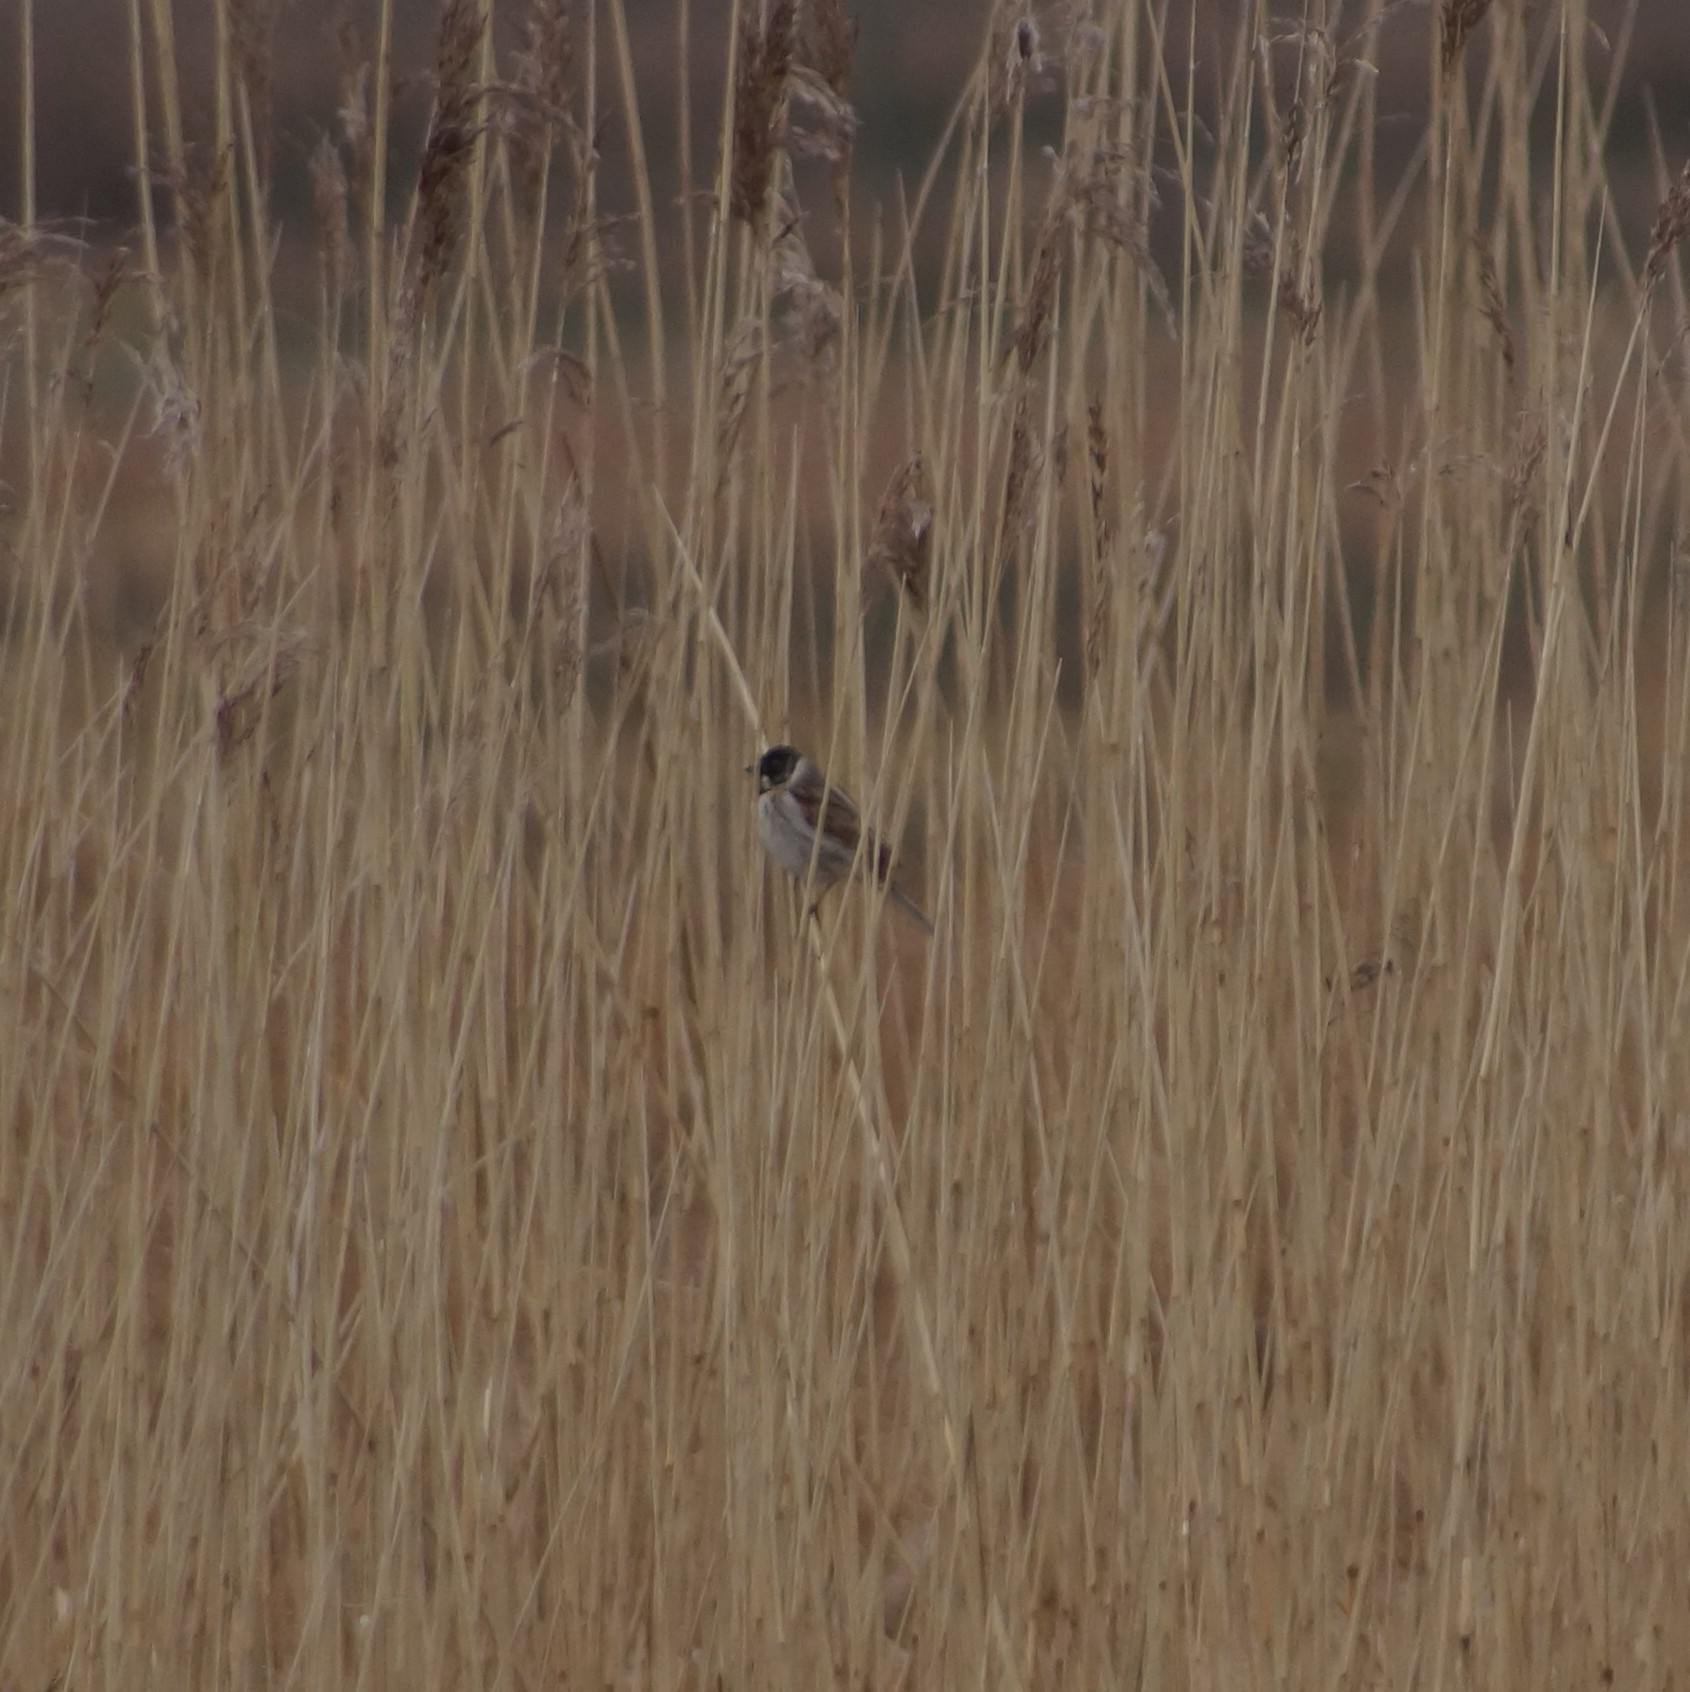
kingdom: Animalia
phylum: Chordata
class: Aves
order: Passeriformes
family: Emberizidae
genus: Emberiza
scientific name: Emberiza schoeniclus
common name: Reed bunting
